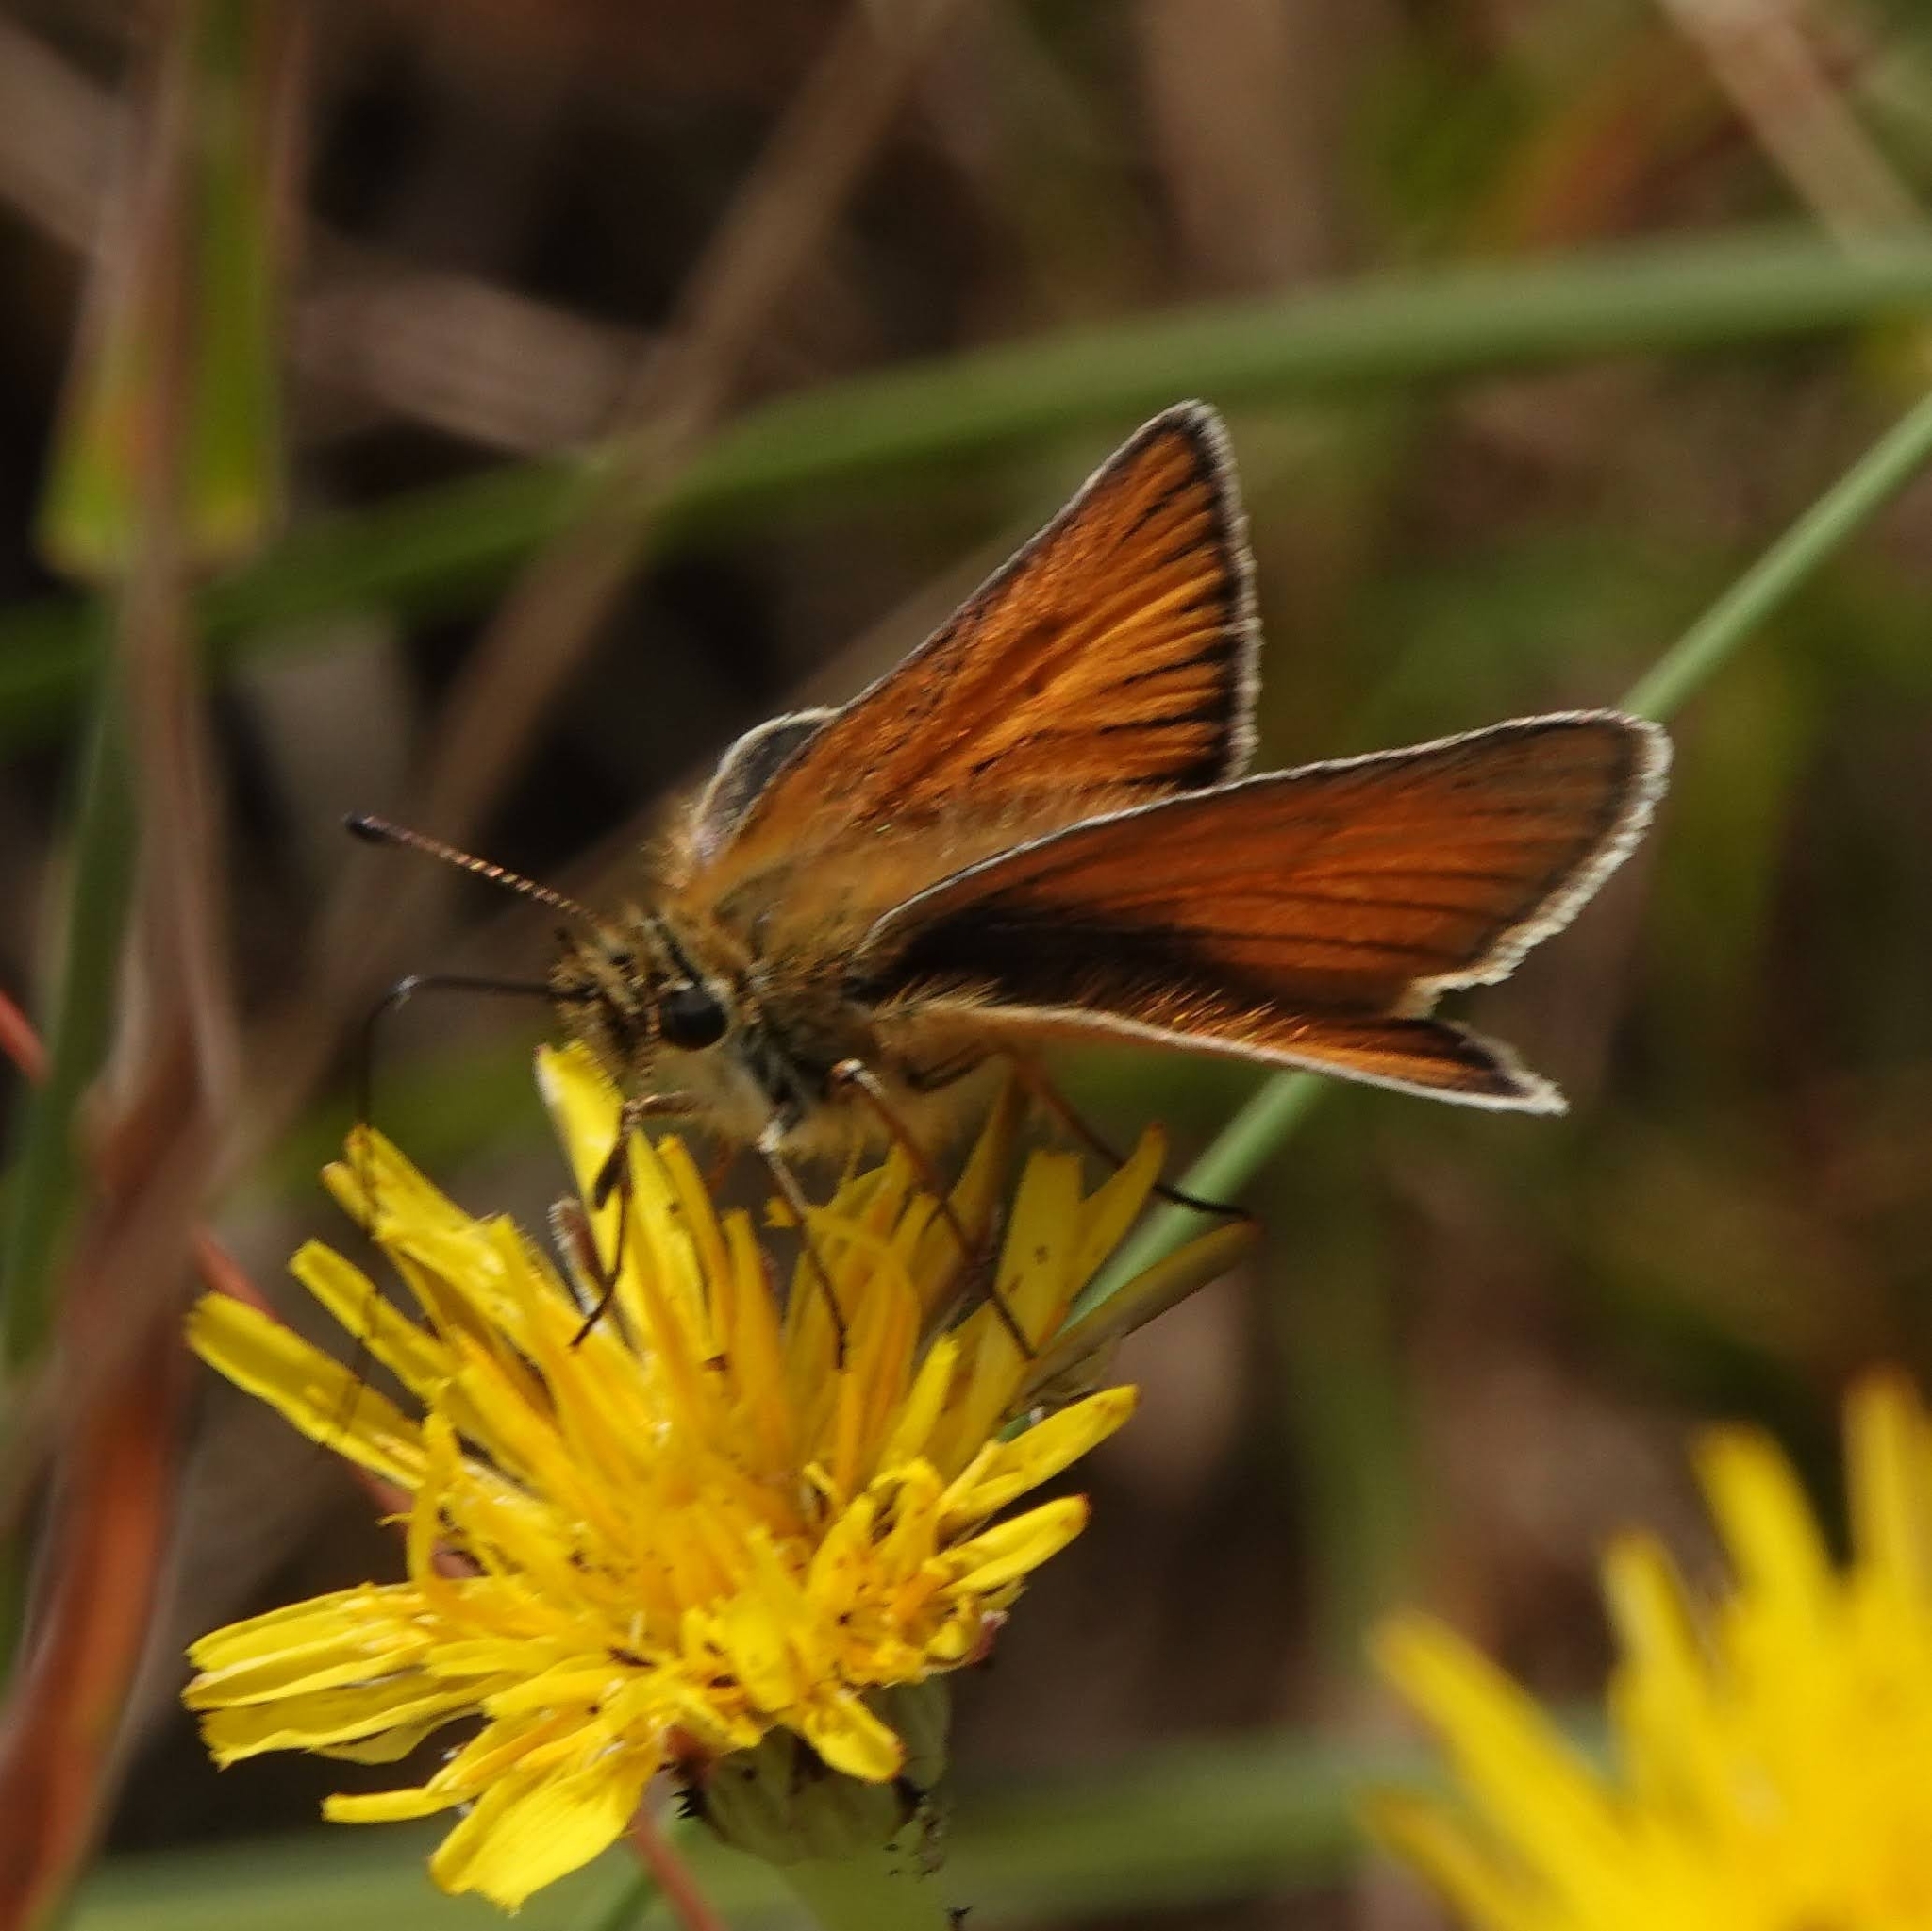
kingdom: Animalia
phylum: Arthropoda
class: Insecta
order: Lepidoptera
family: Hesperiidae
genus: Thymelicus
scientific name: Thymelicus lineola
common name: Essex skipper
